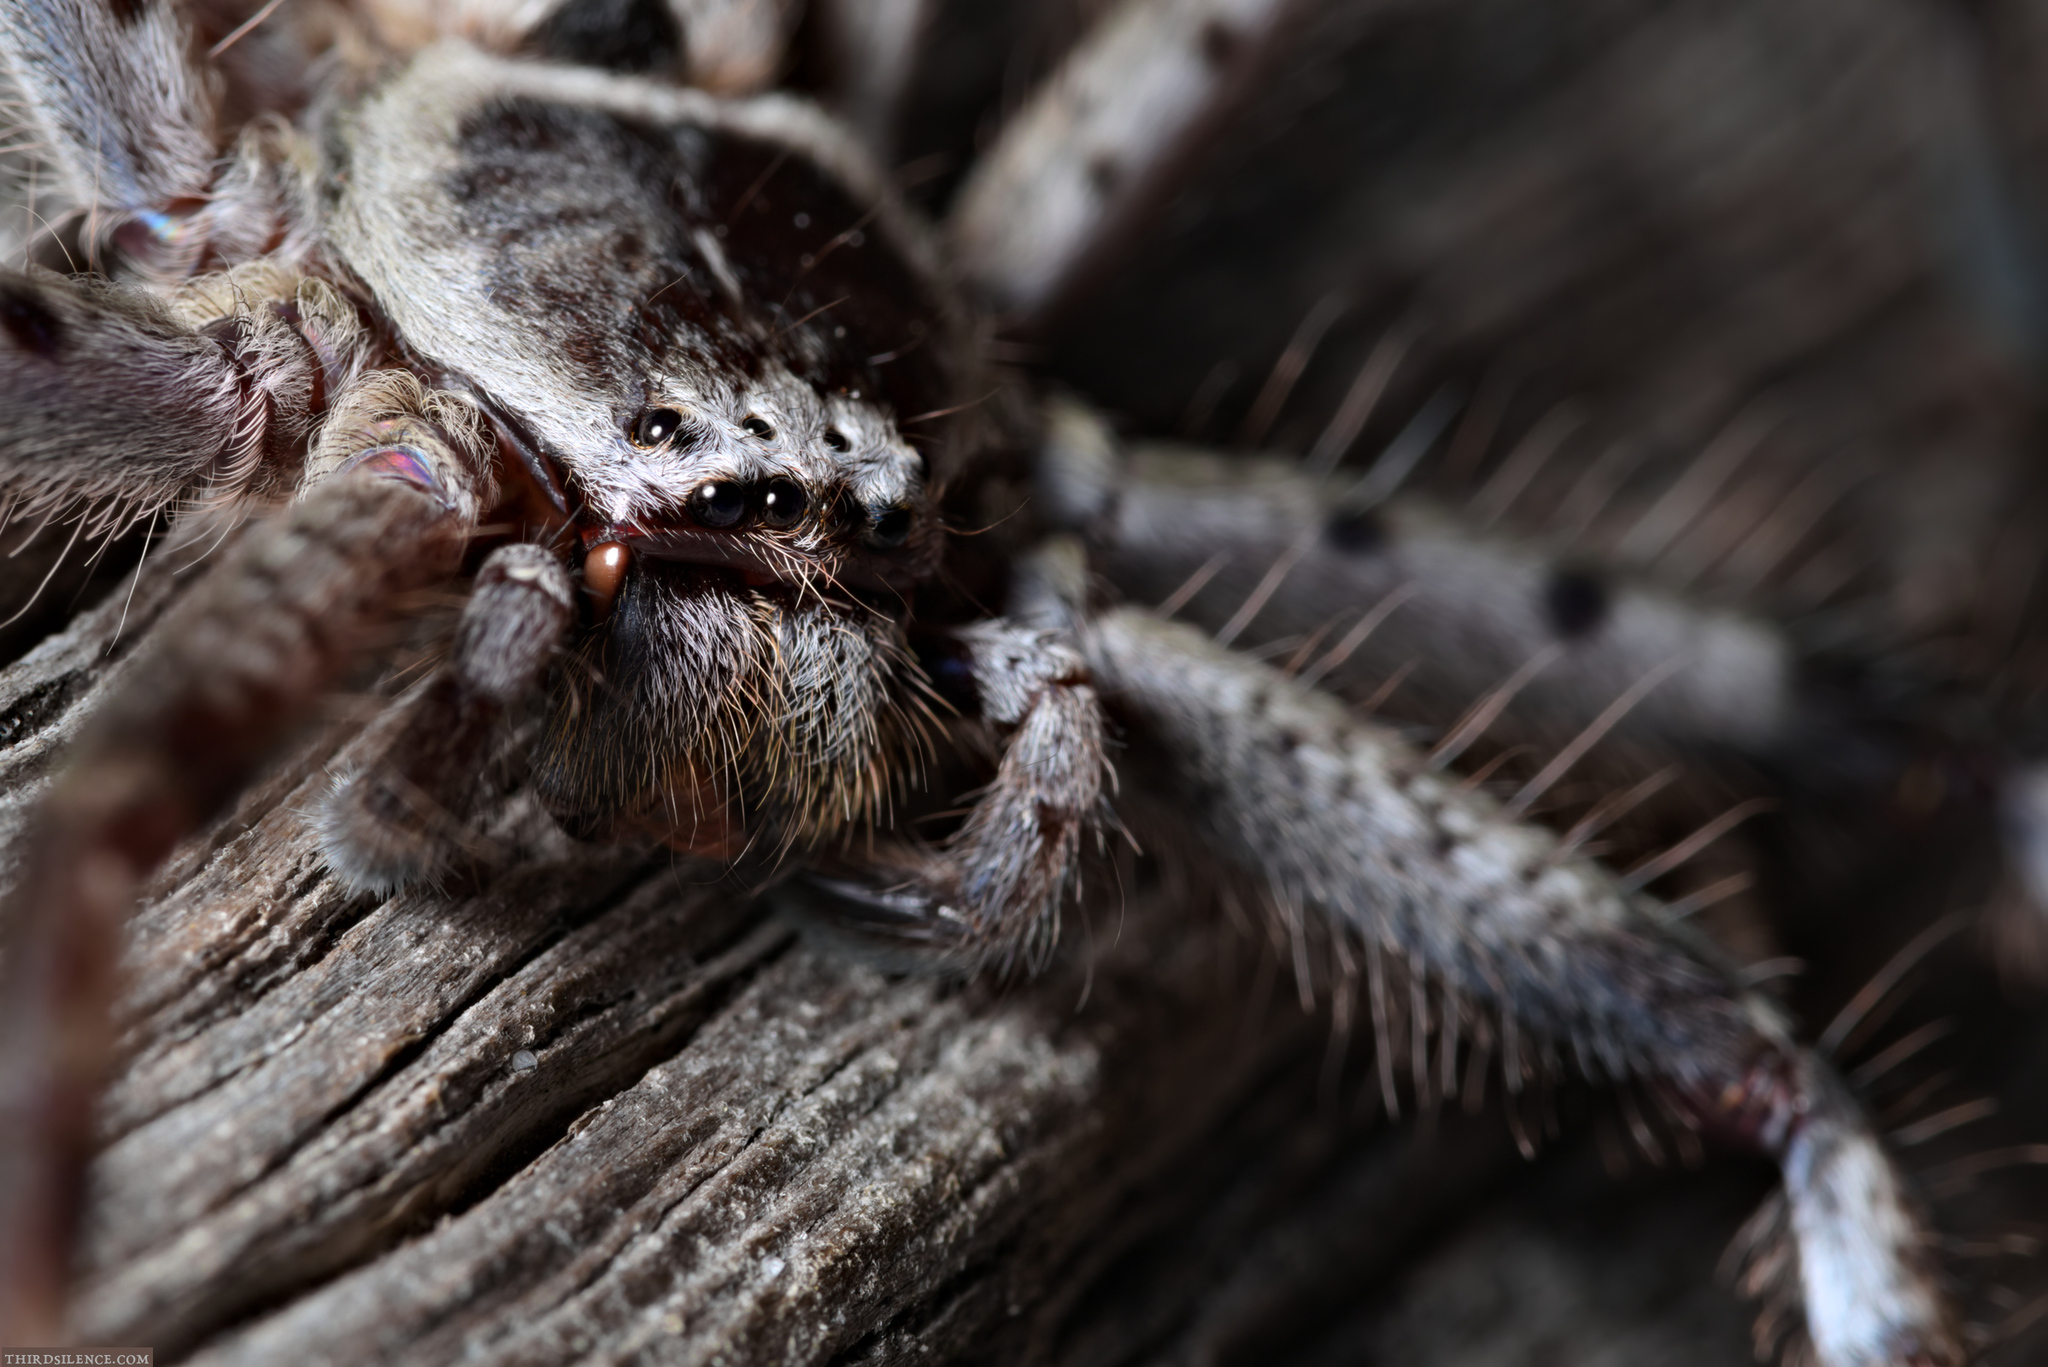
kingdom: Animalia
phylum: Arthropoda
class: Arachnida
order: Araneae
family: Sparassidae
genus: Holconia
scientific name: Holconia immanis
